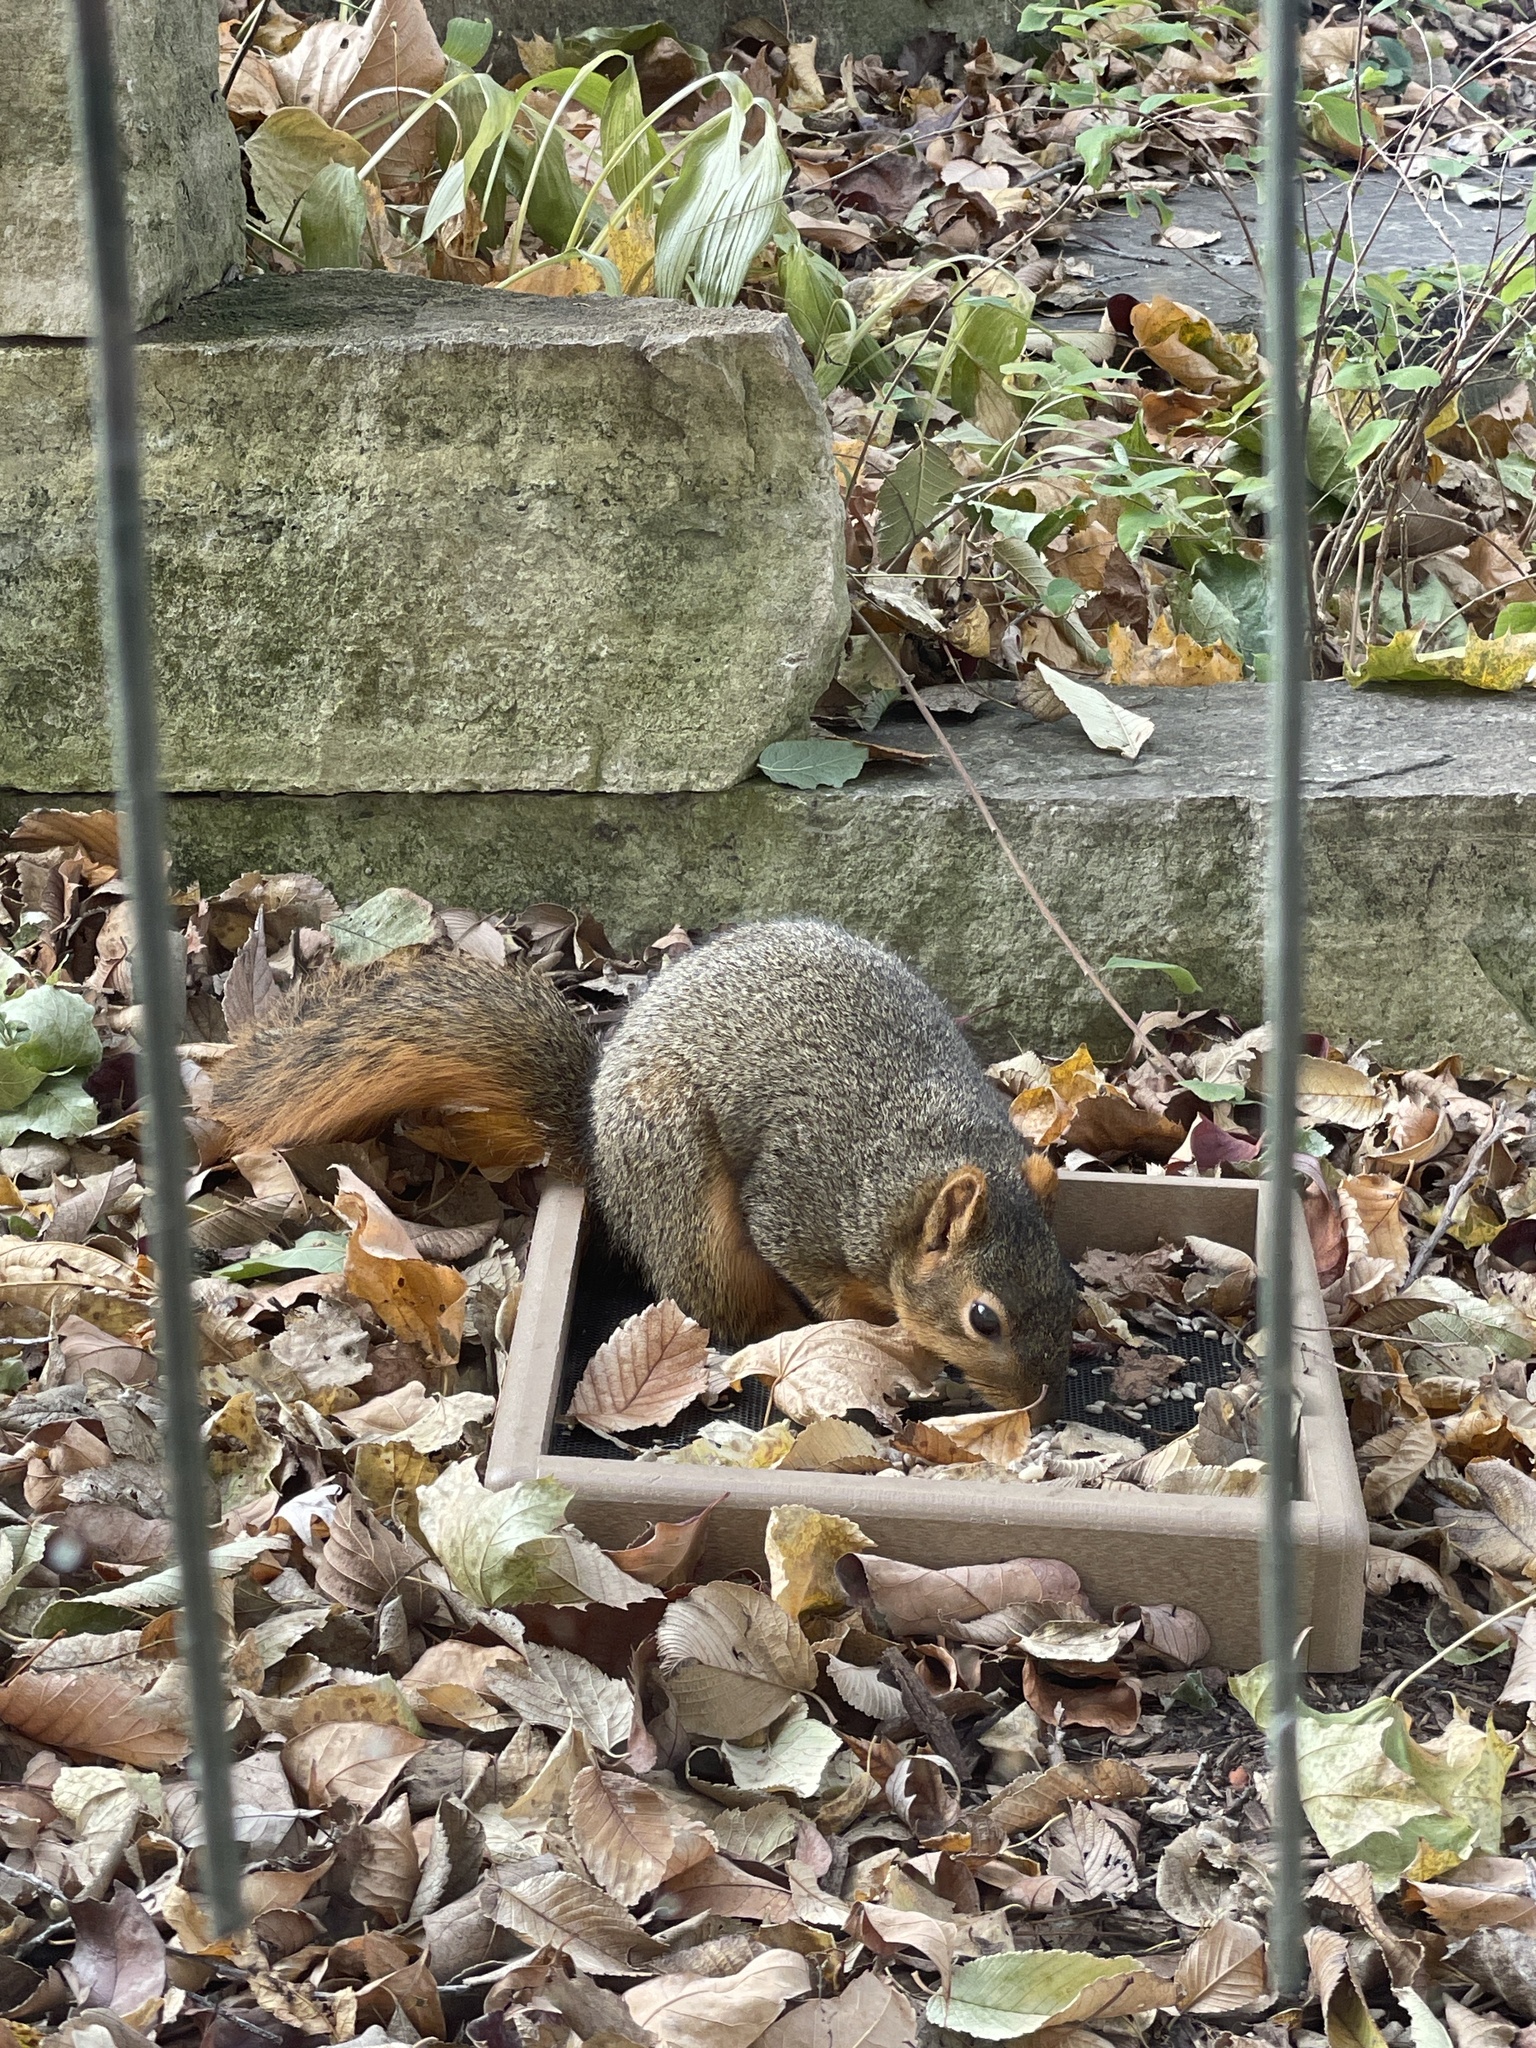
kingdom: Animalia
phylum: Chordata
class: Mammalia
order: Rodentia
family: Sciuridae
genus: Sciurus
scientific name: Sciurus niger
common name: Fox squirrel
